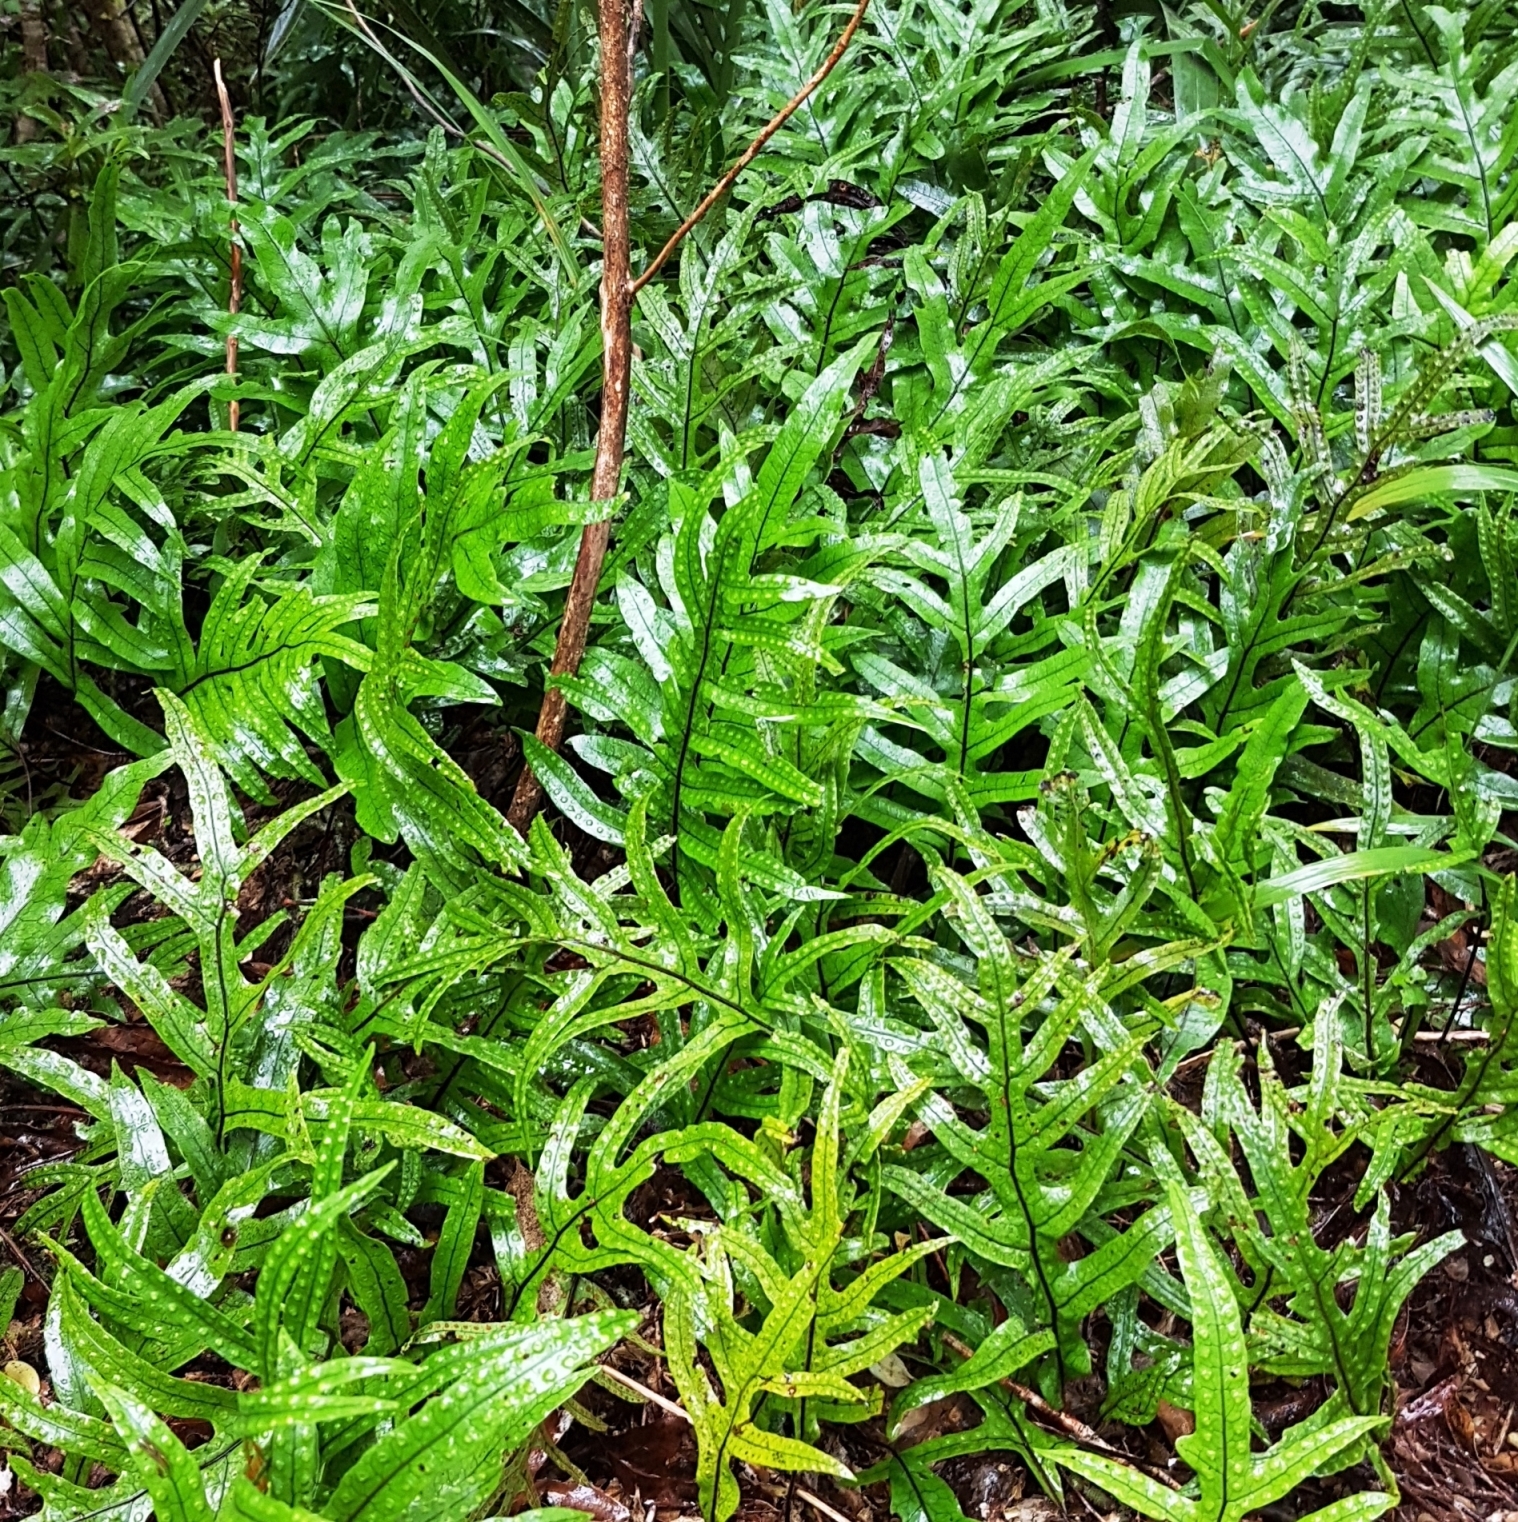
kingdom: Plantae
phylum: Tracheophyta
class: Polypodiopsida
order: Polypodiales
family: Polypodiaceae
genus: Lecanopteris
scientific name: Lecanopteris pustulata
